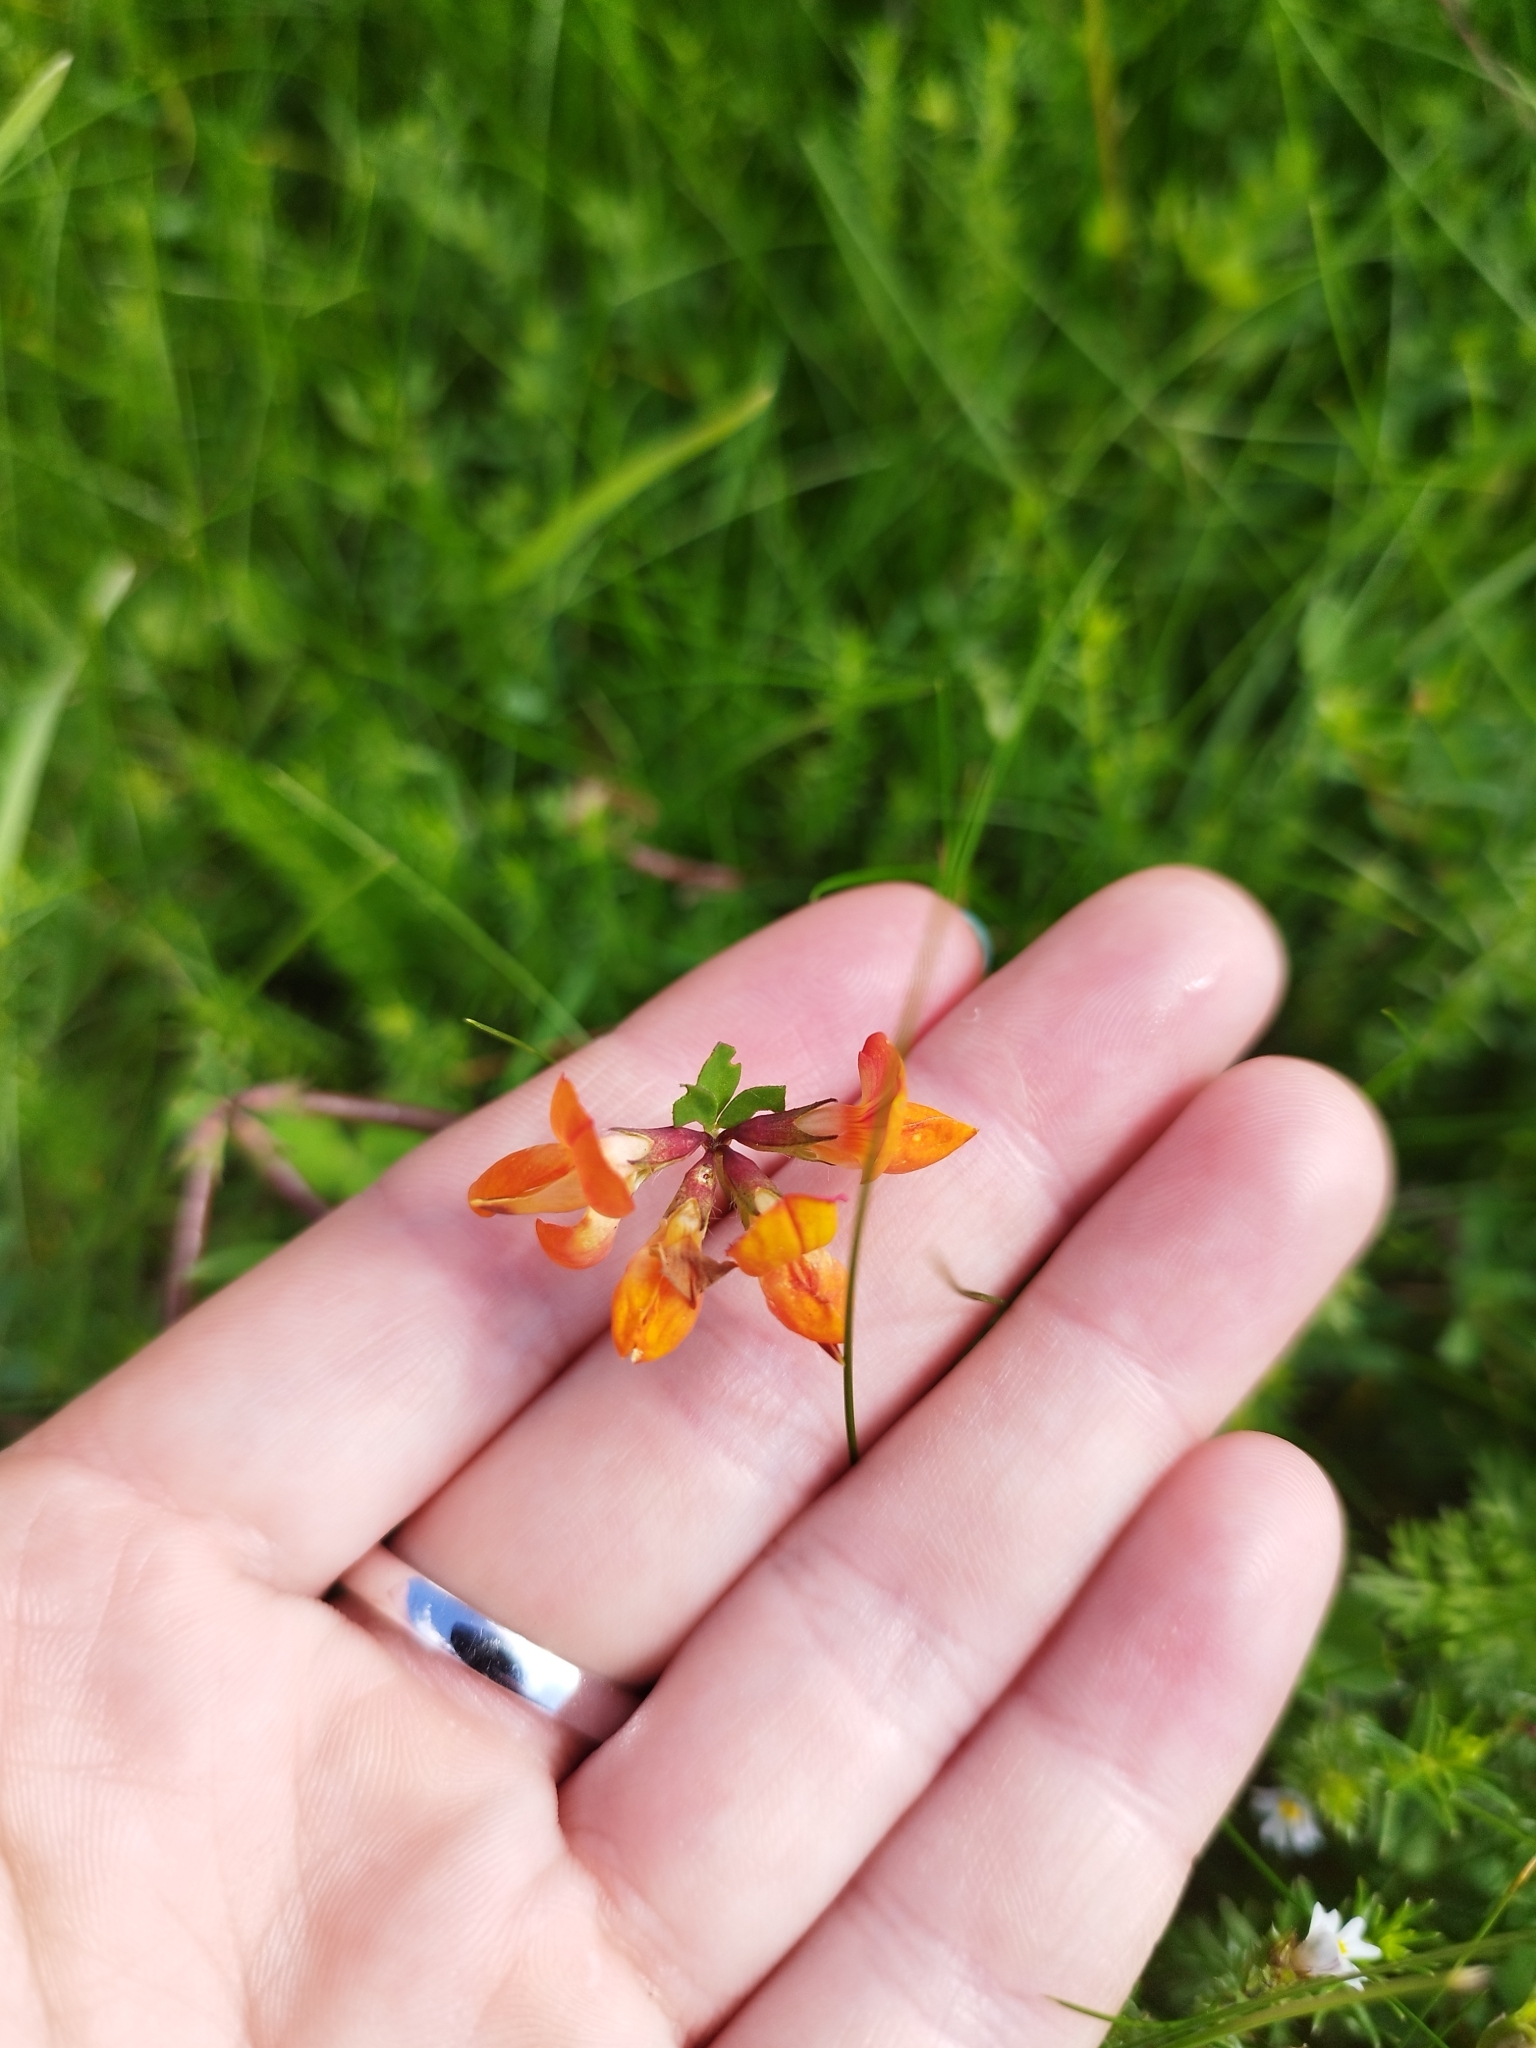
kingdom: Plantae
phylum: Tracheophyta
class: Magnoliopsida
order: Fabales
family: Fabaceae
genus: Lotus
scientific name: Lotus corniculatus
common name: Common bird's-foot-trefoil
